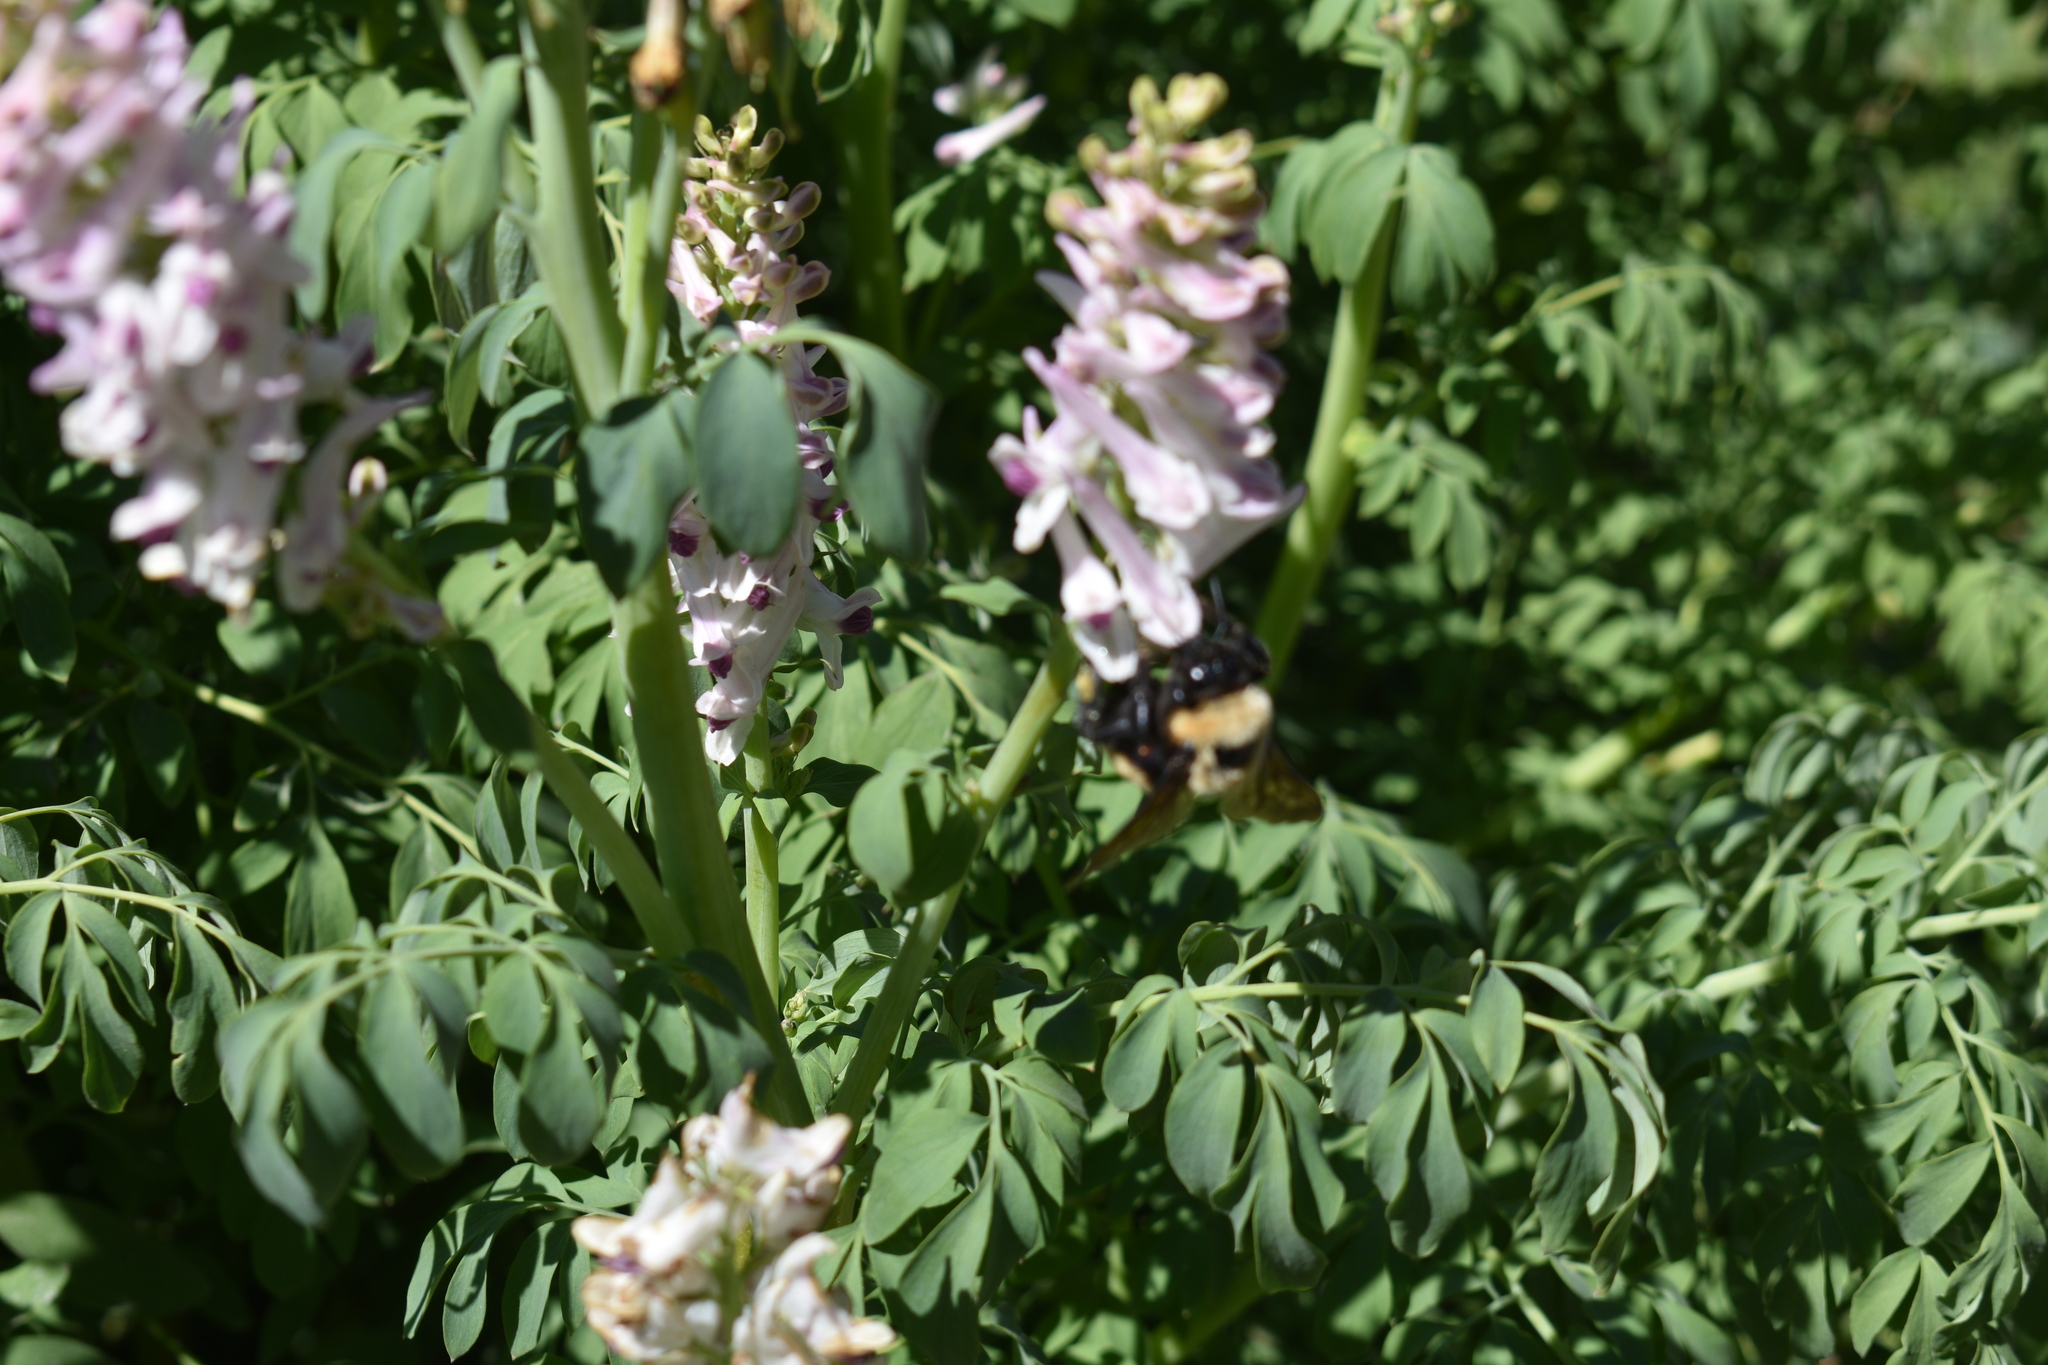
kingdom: Plantae
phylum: Tracheophyta
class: Magnoliopsida
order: Ranunculales
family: Papaveraceae
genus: Corydalis
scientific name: Corydalis caseana
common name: Fitweed
